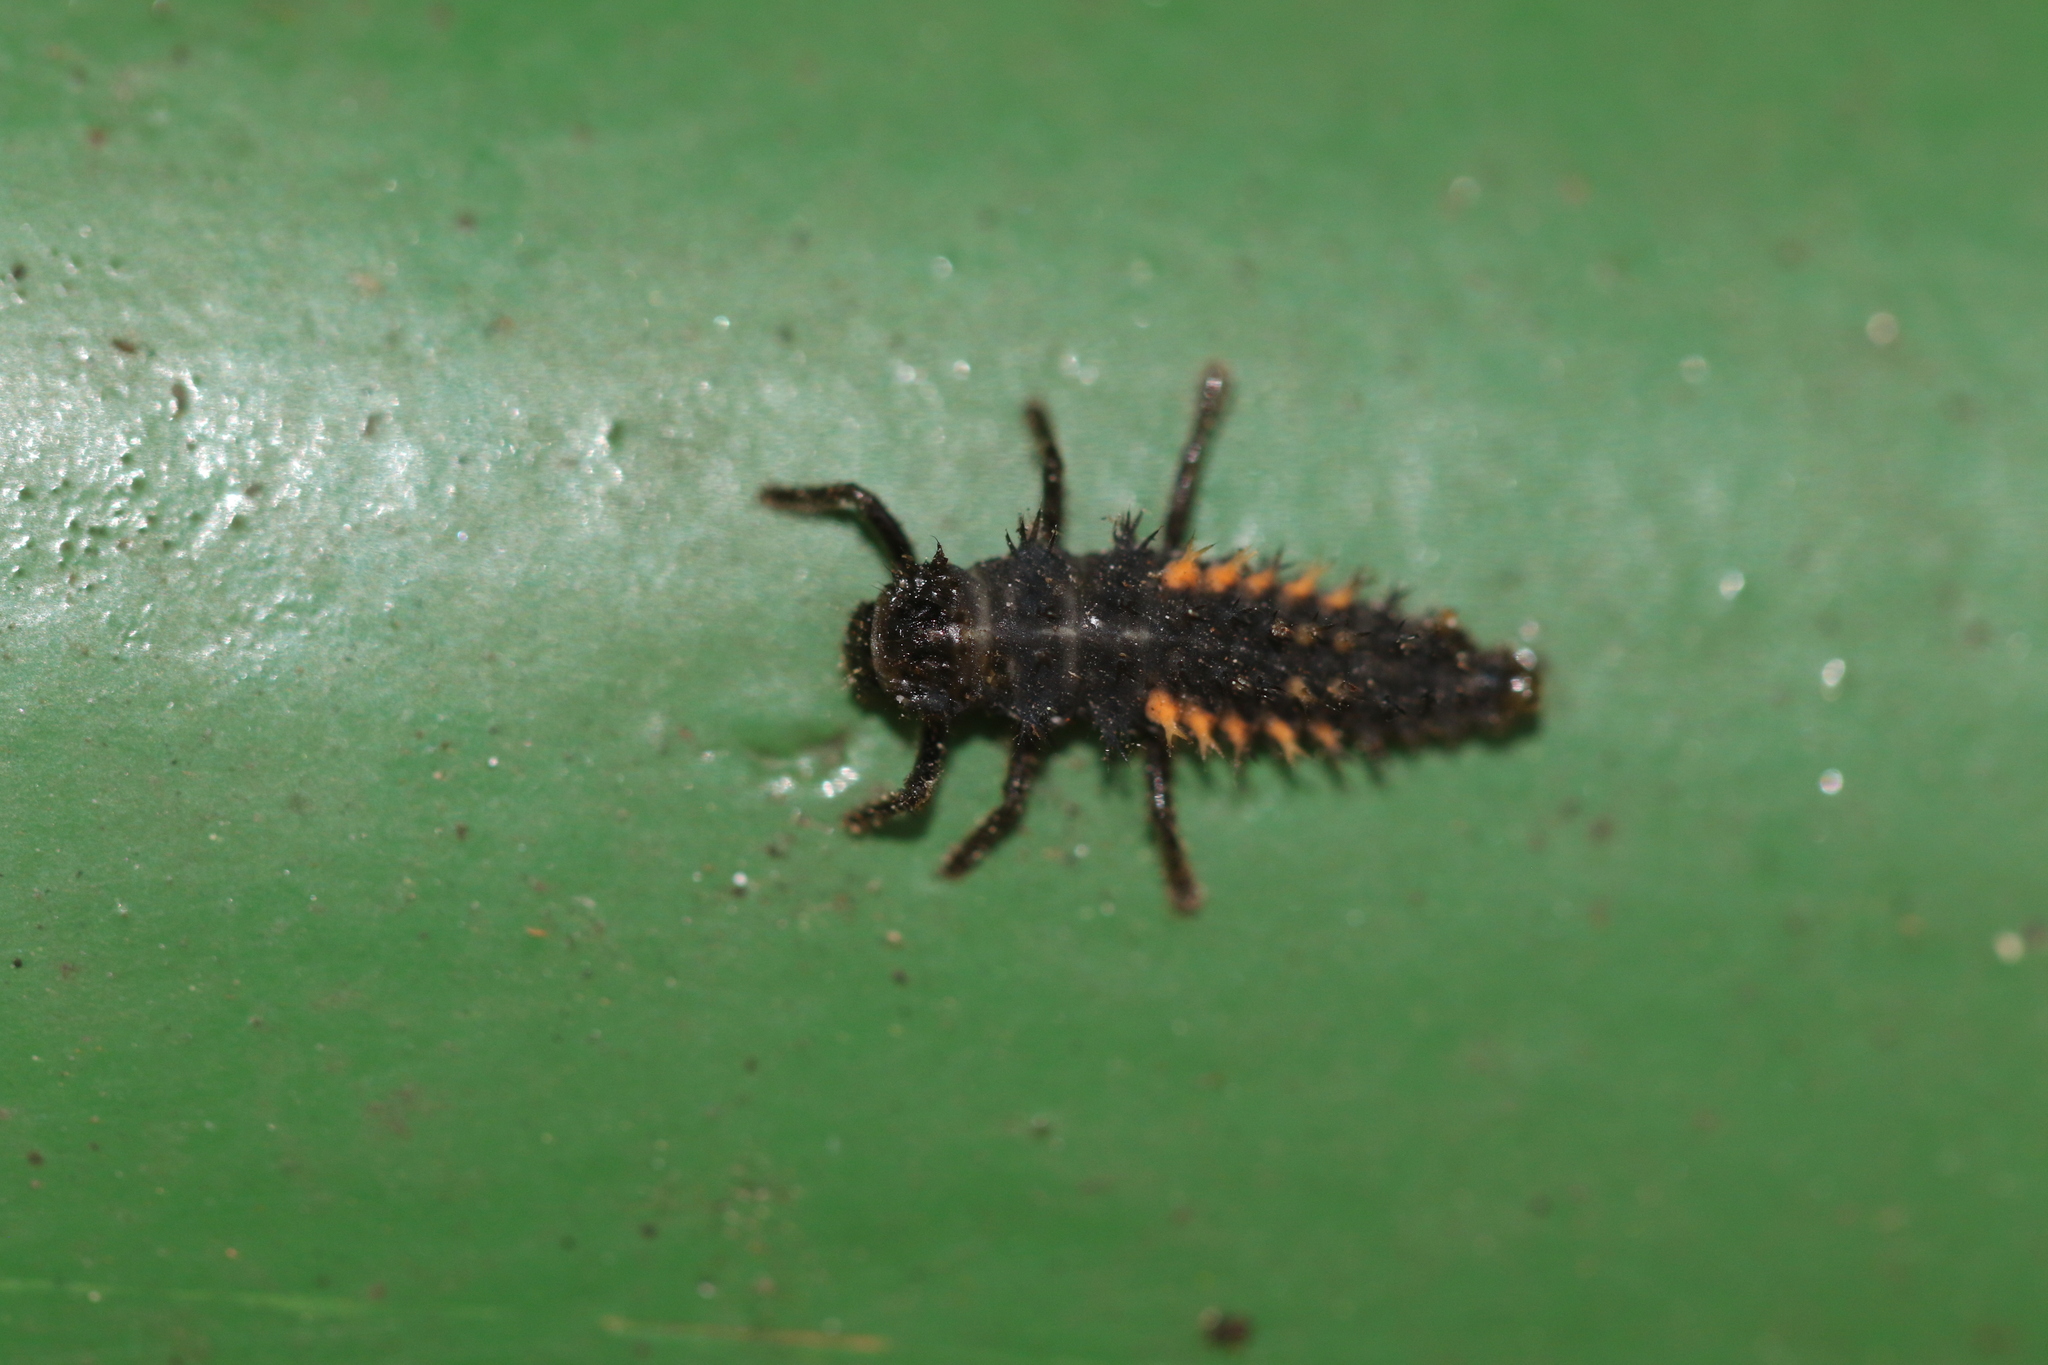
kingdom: Animalia
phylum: Arthropoda
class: Insecta
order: Coleoptera
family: Coccinellidae
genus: Harmonia
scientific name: Harmonia axyridis
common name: Harlequin ladybird
